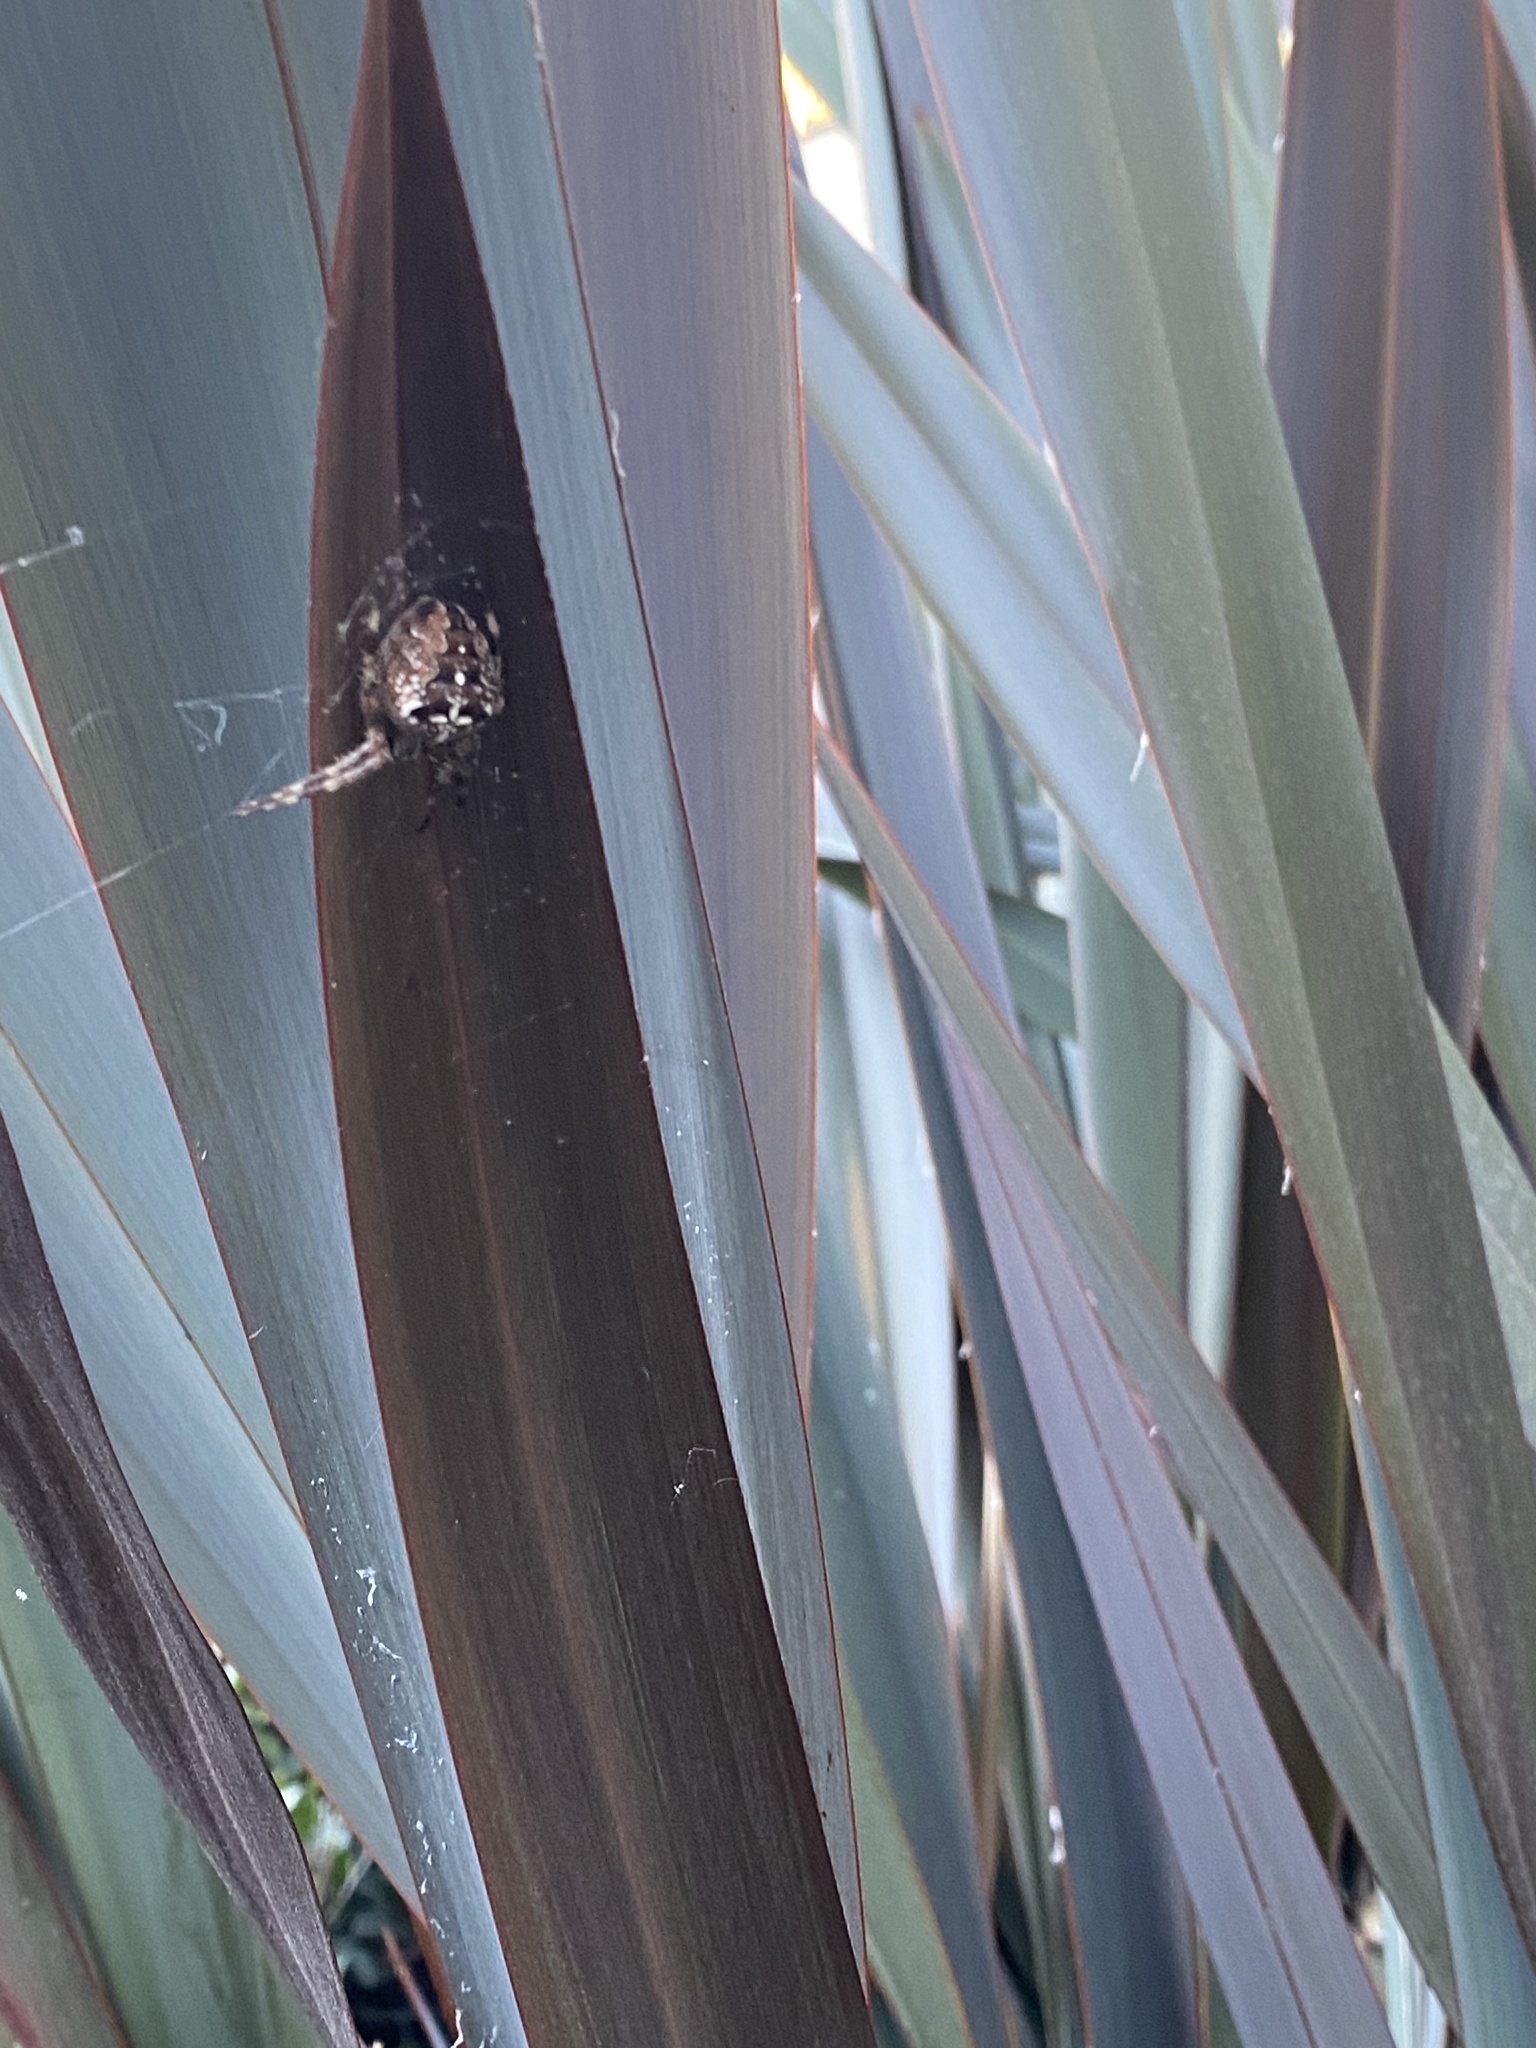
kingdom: Animalia
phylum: Arthropoda
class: Arachnida
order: Araneae
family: Araneidae
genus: Araneus
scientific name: Araneus diadematus
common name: Cross orbweaver
